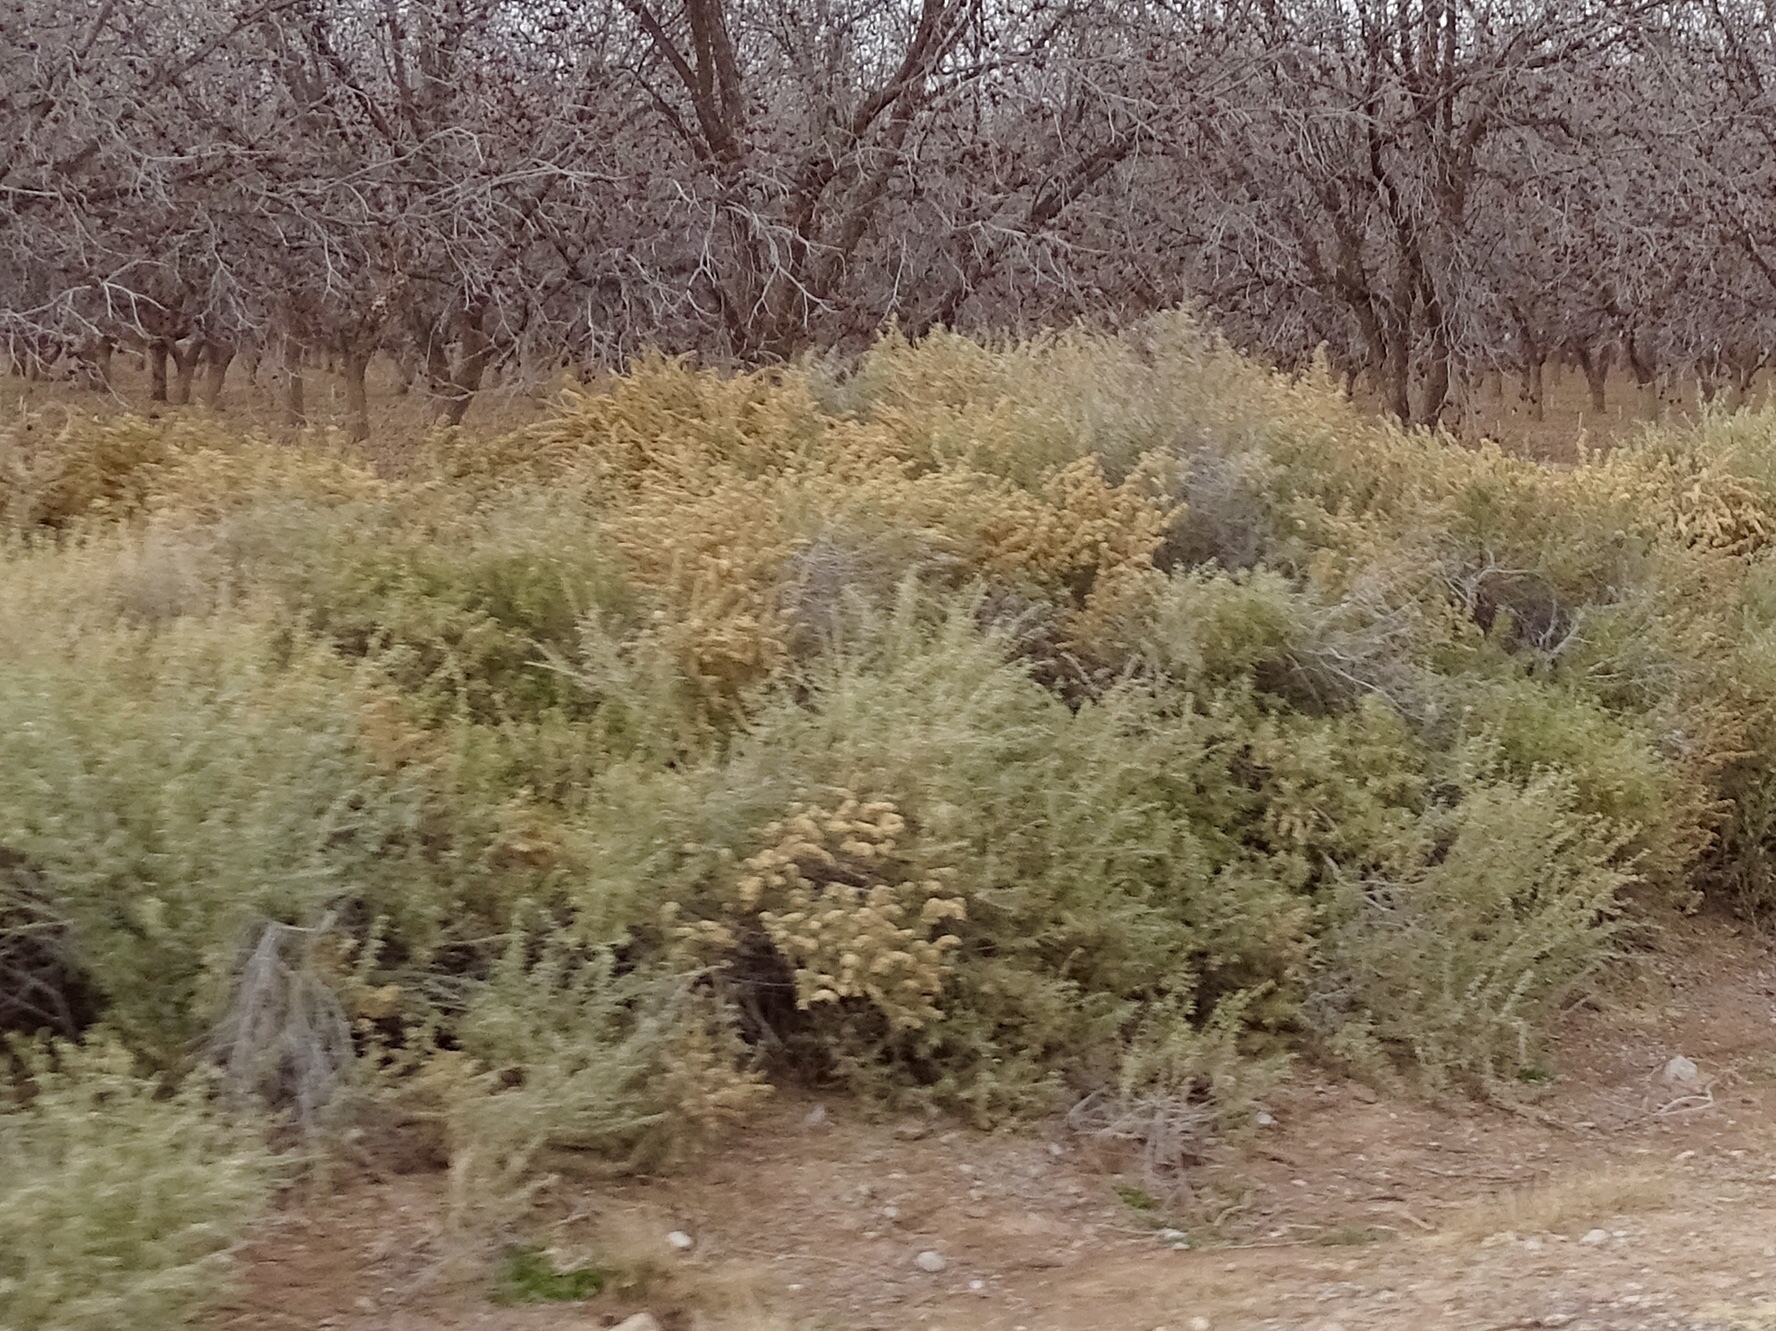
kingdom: Plantae
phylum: Tracheophyta
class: Magnoliopsida
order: Caryophyllales
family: Amaranthaceae
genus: Atriplex
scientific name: Atriplex canescens
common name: Four-wing saltbush
